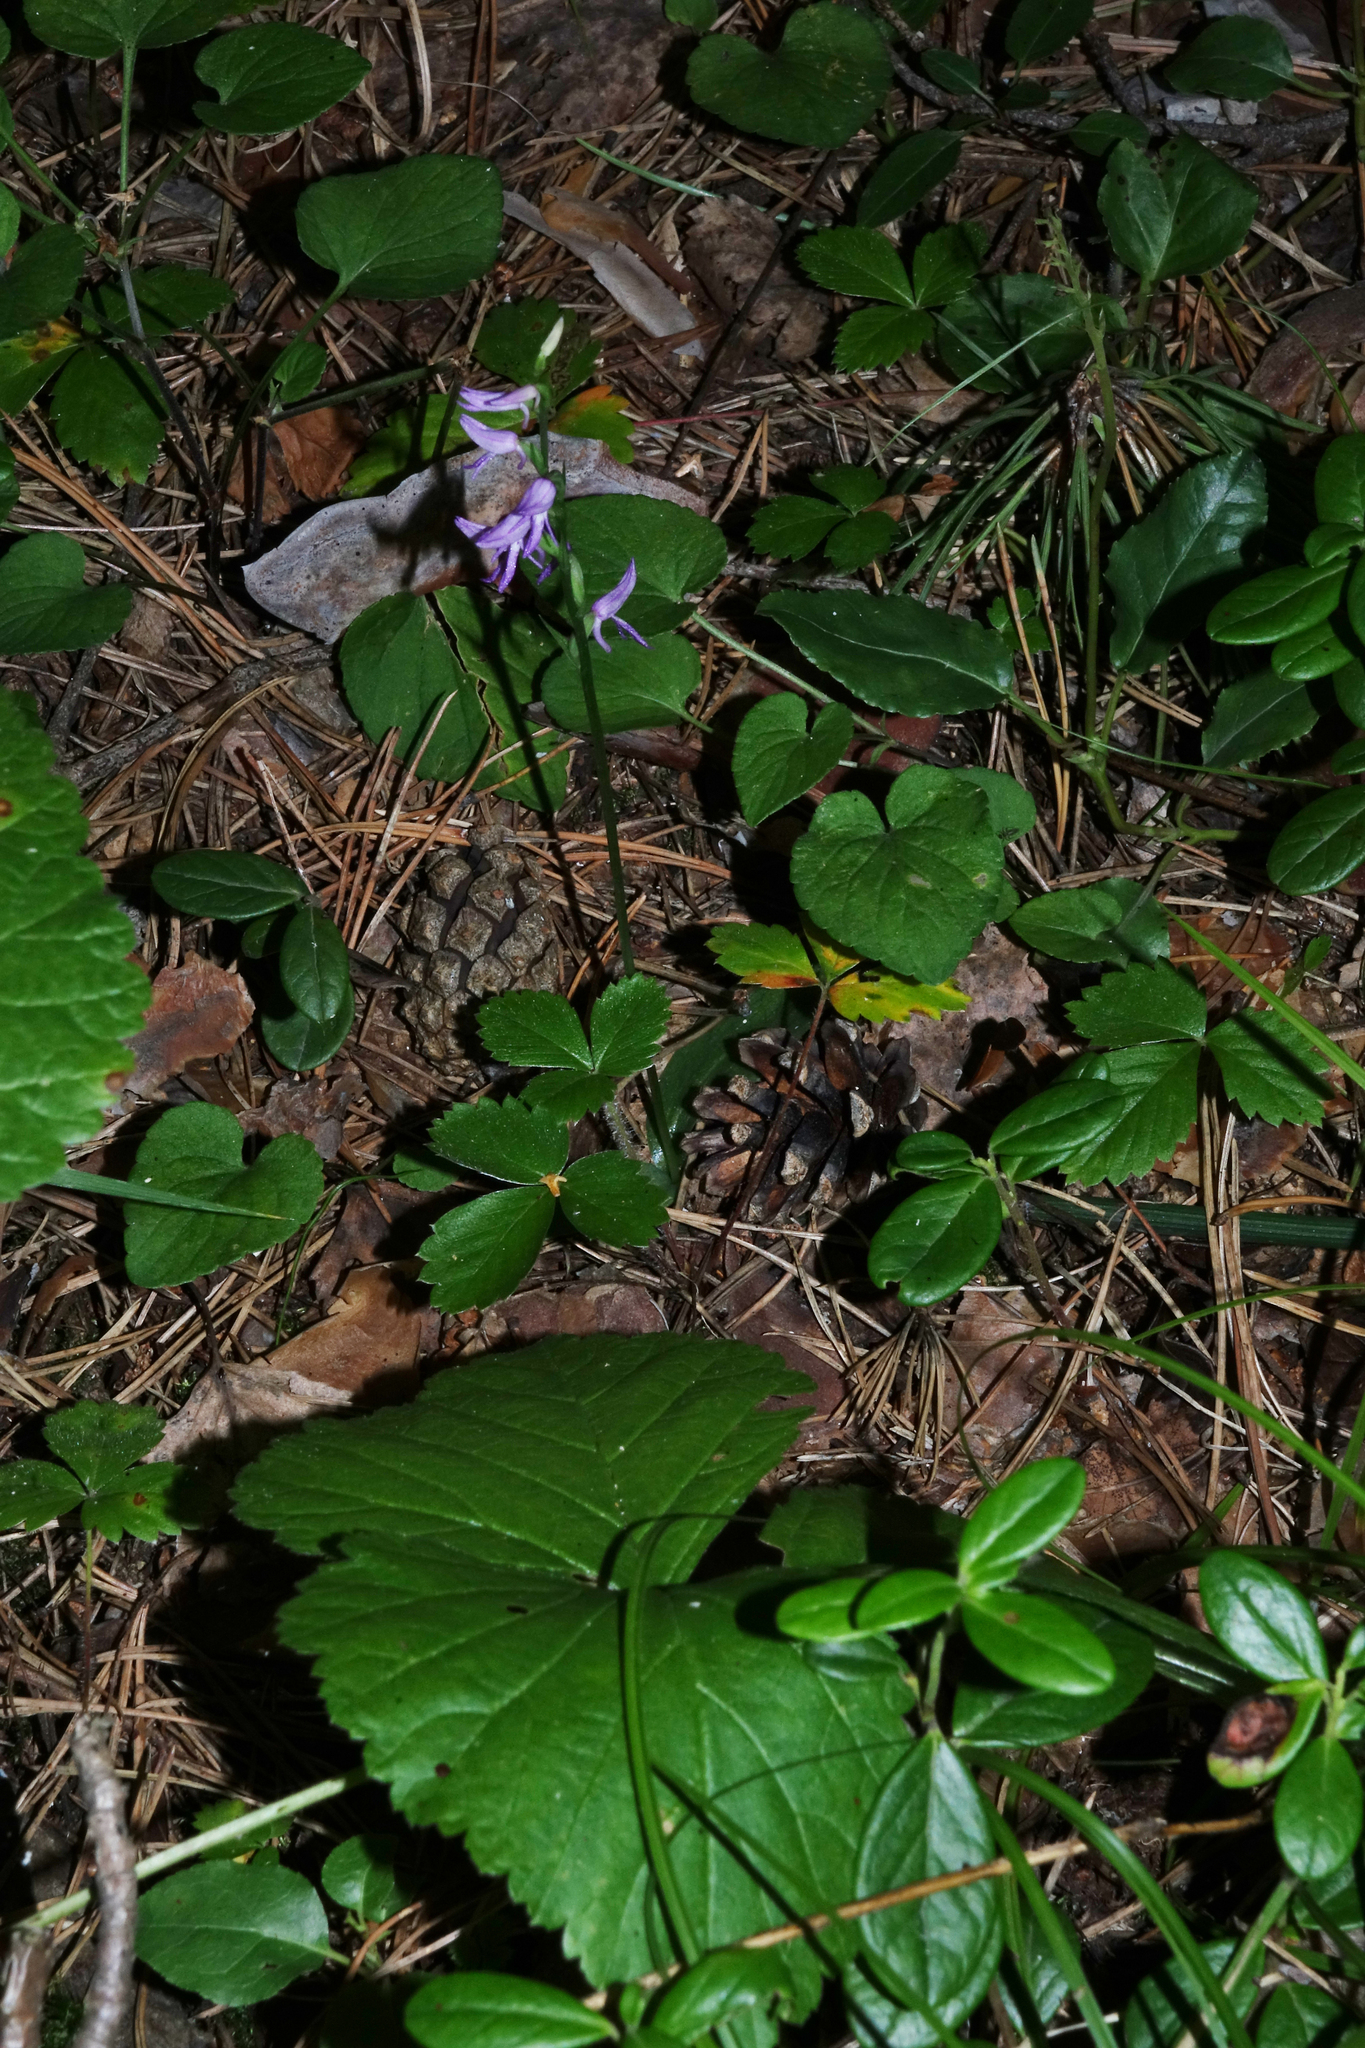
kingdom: Plantae
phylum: Tracheophyta
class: Liliopsida
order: Asparagales
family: Orchidaceae
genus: Hemipilia
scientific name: Hemipilia cucullata
